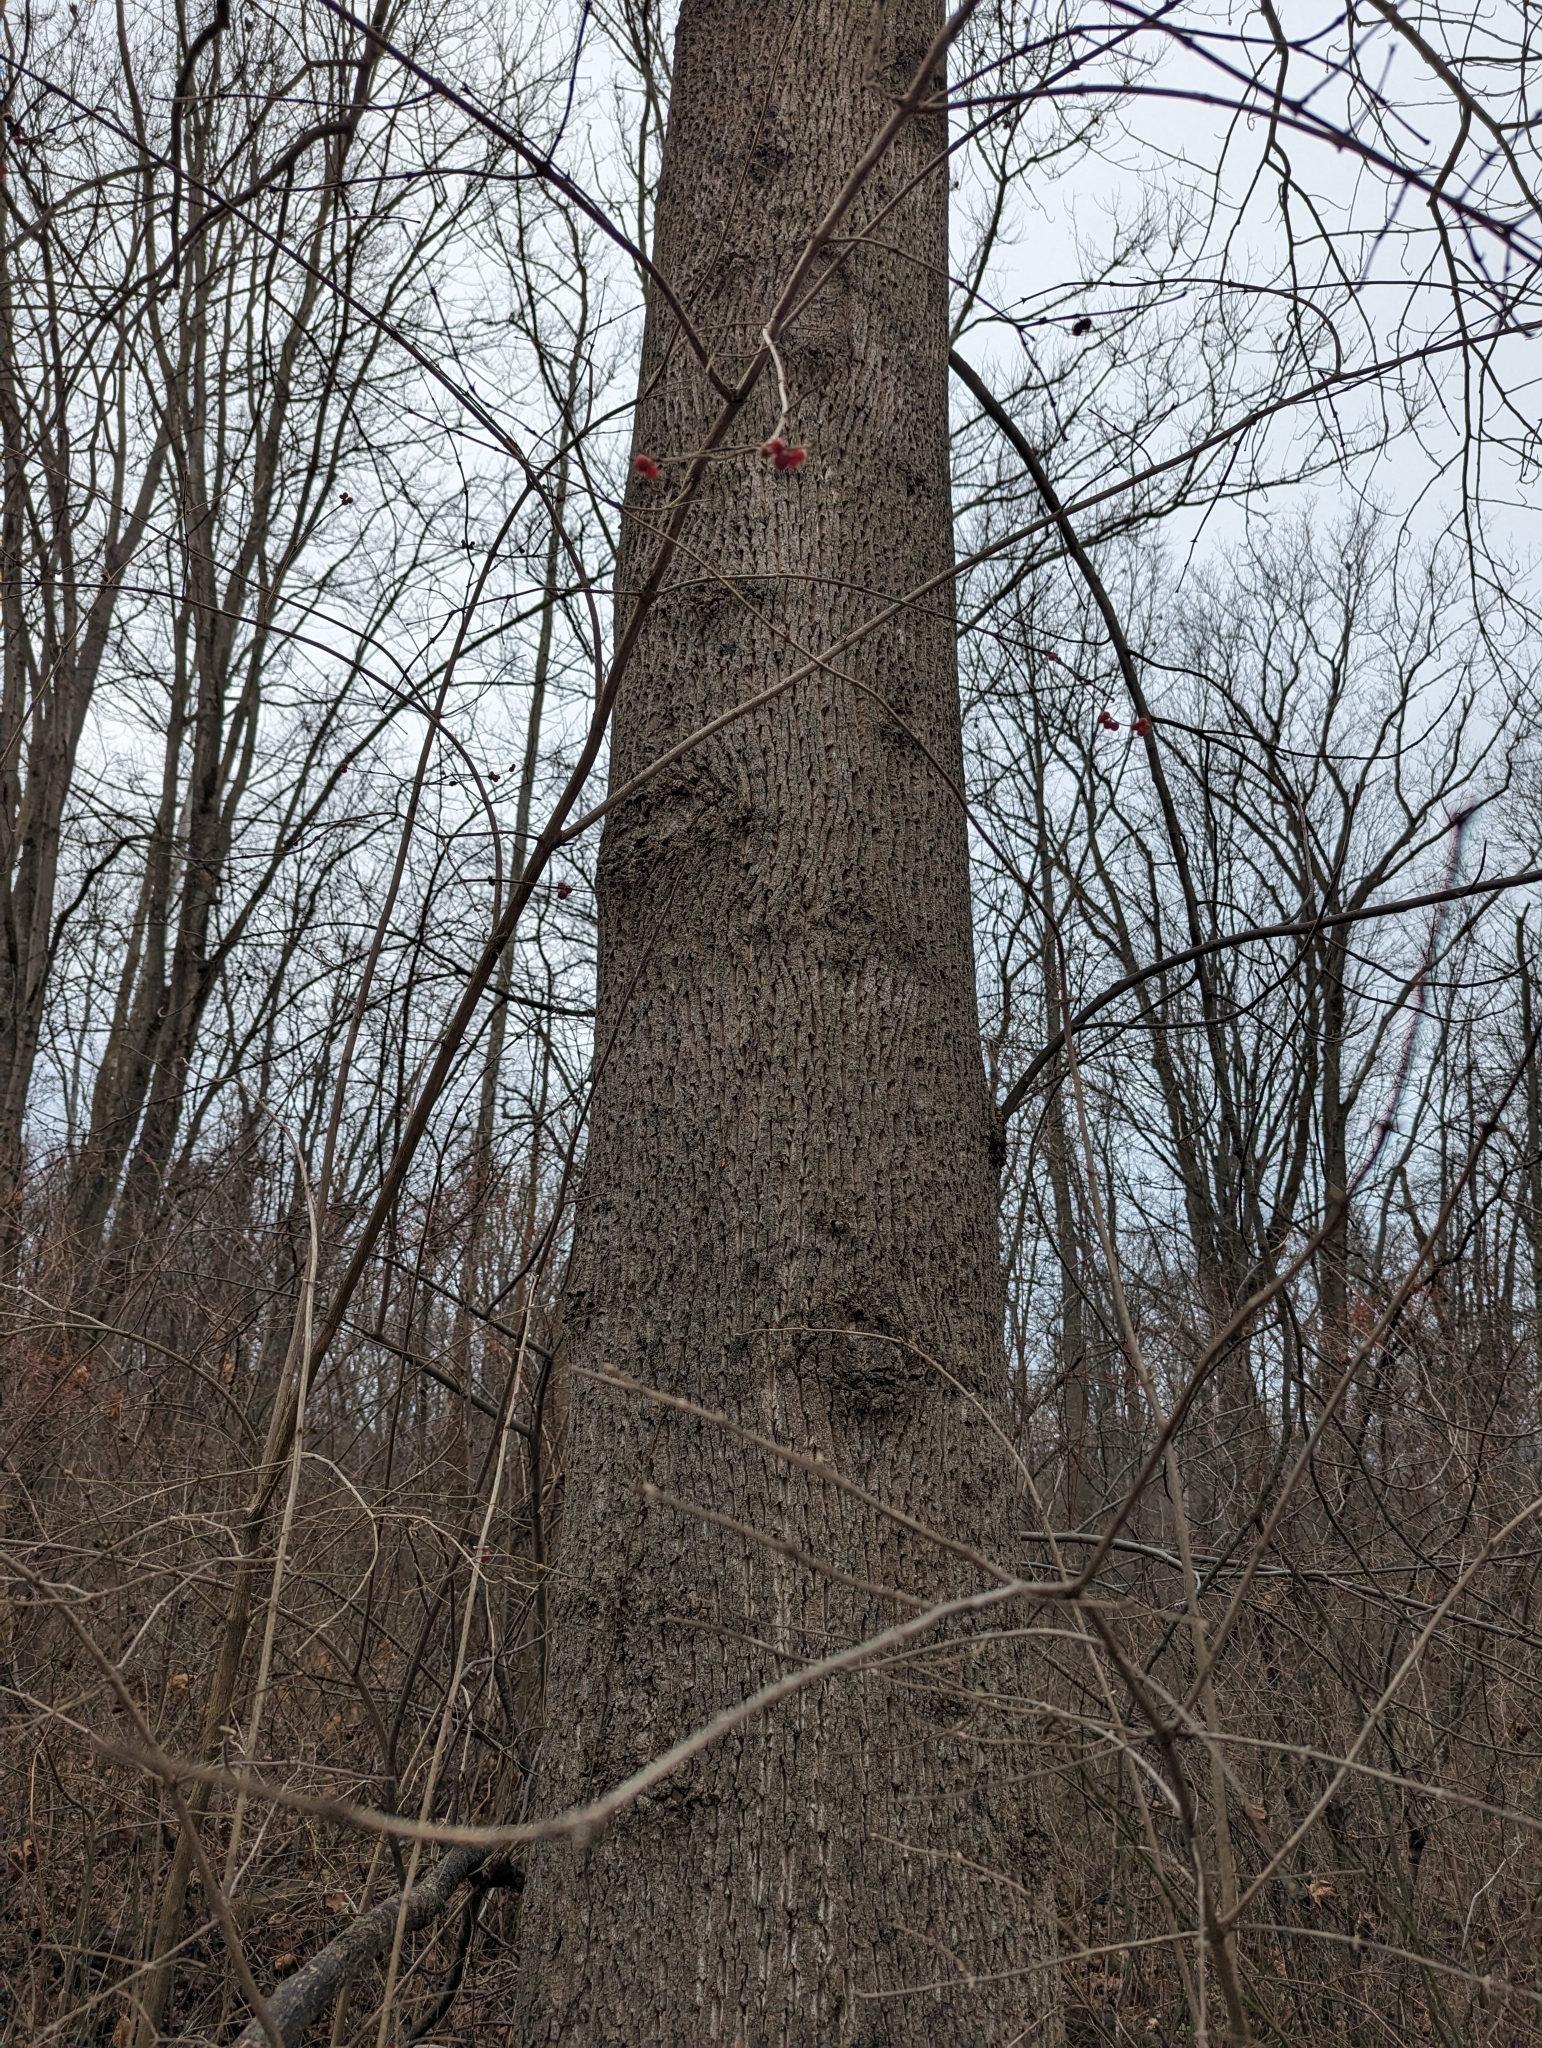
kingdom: Plantae
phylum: Tracheophyta
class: Magnoliopsida
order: Magnoliales
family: Magnoliaceae
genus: Liriodendron
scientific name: Liriodendron tulipifera
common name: Tulip tree
